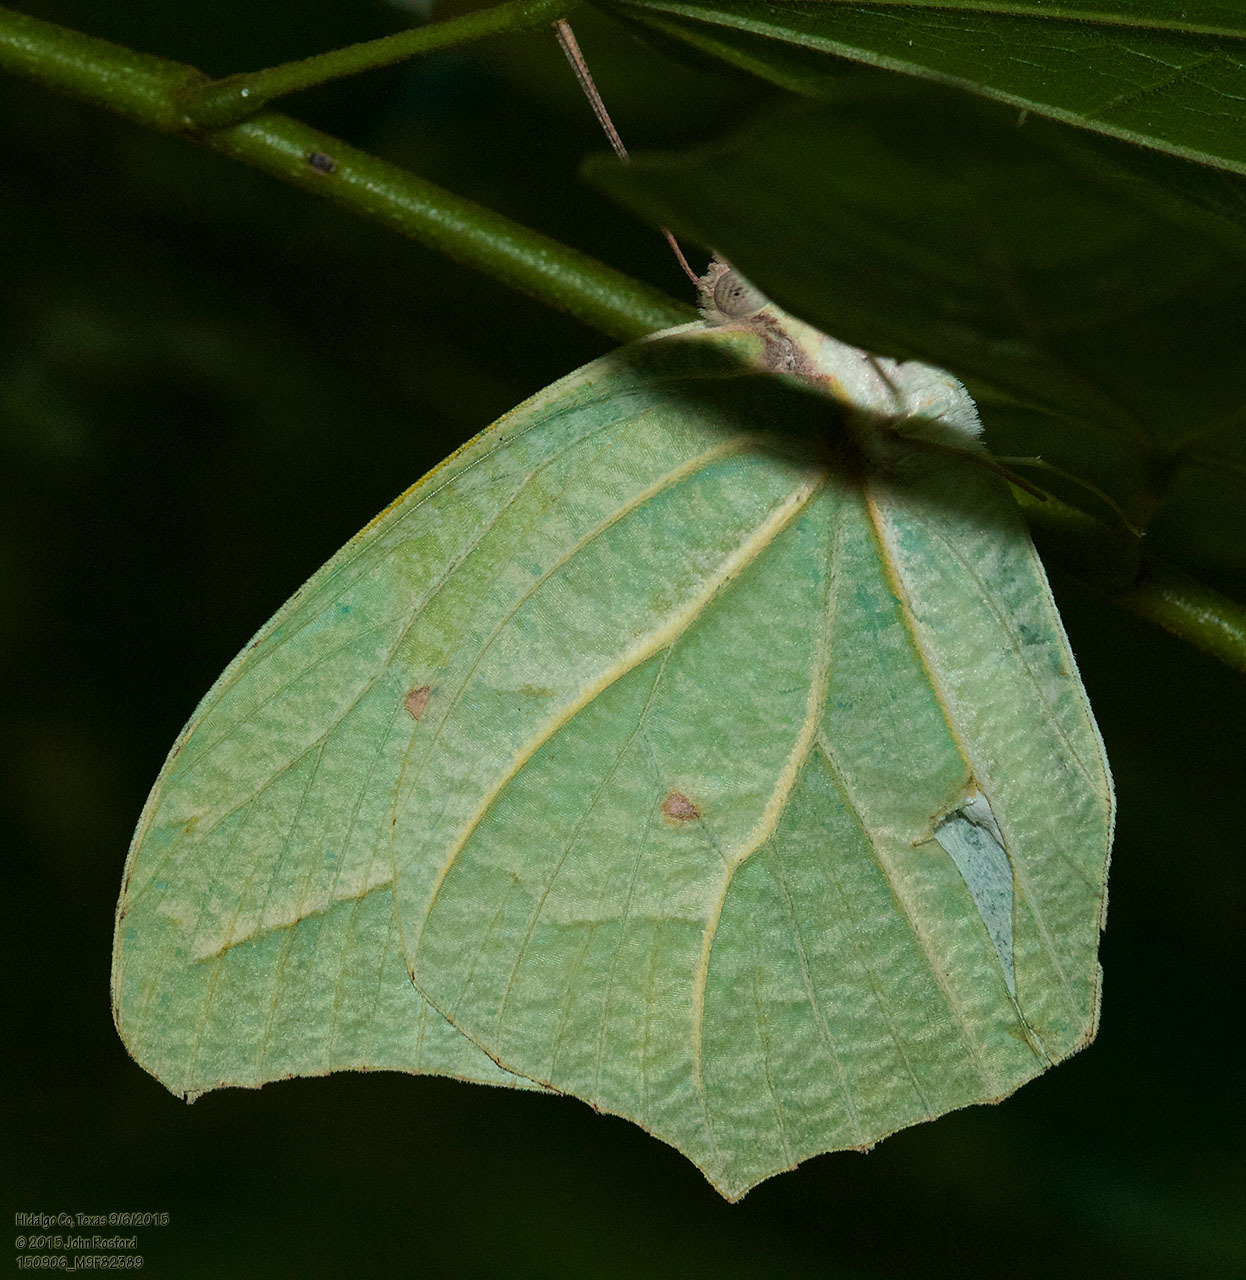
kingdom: Animalia
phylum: Arthropoda
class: Insecta
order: Lepidoptera
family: Pieridae
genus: Anteos
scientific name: Anteos clorinde
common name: White angled sulphur
